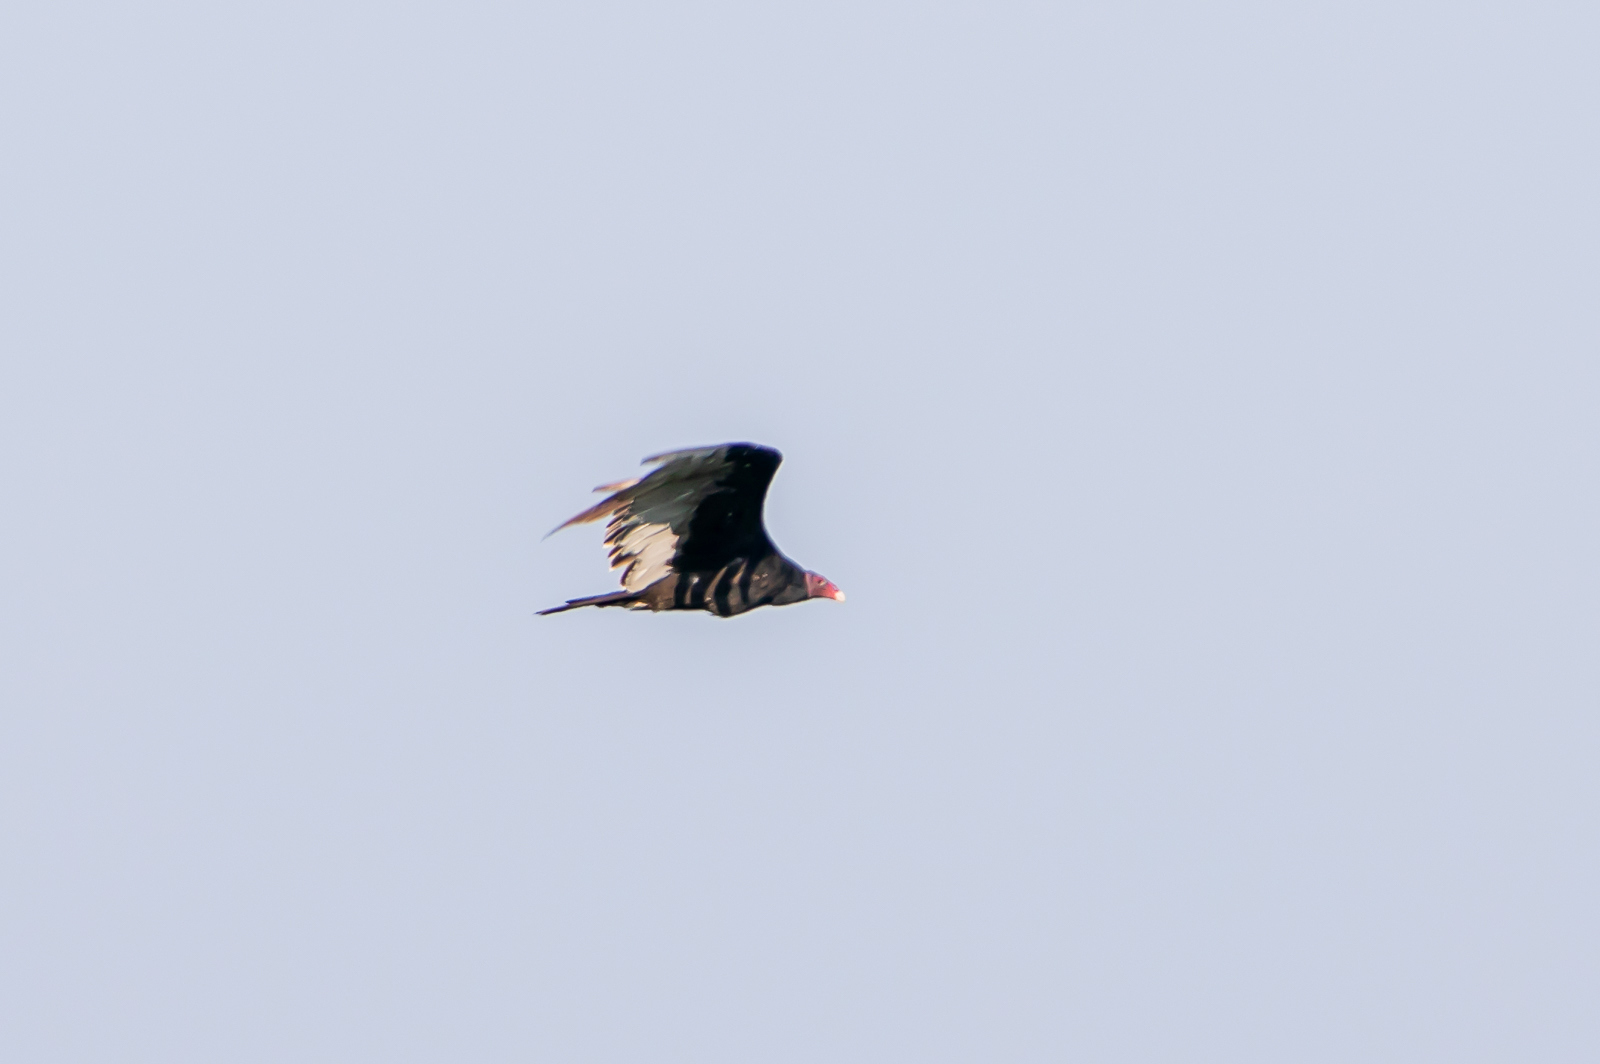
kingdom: Animalia
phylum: Chordata
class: Aves
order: Accipitriformes
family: Cathartidae
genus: Cathartes
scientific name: Cathartes aura
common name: Turkey vulture
